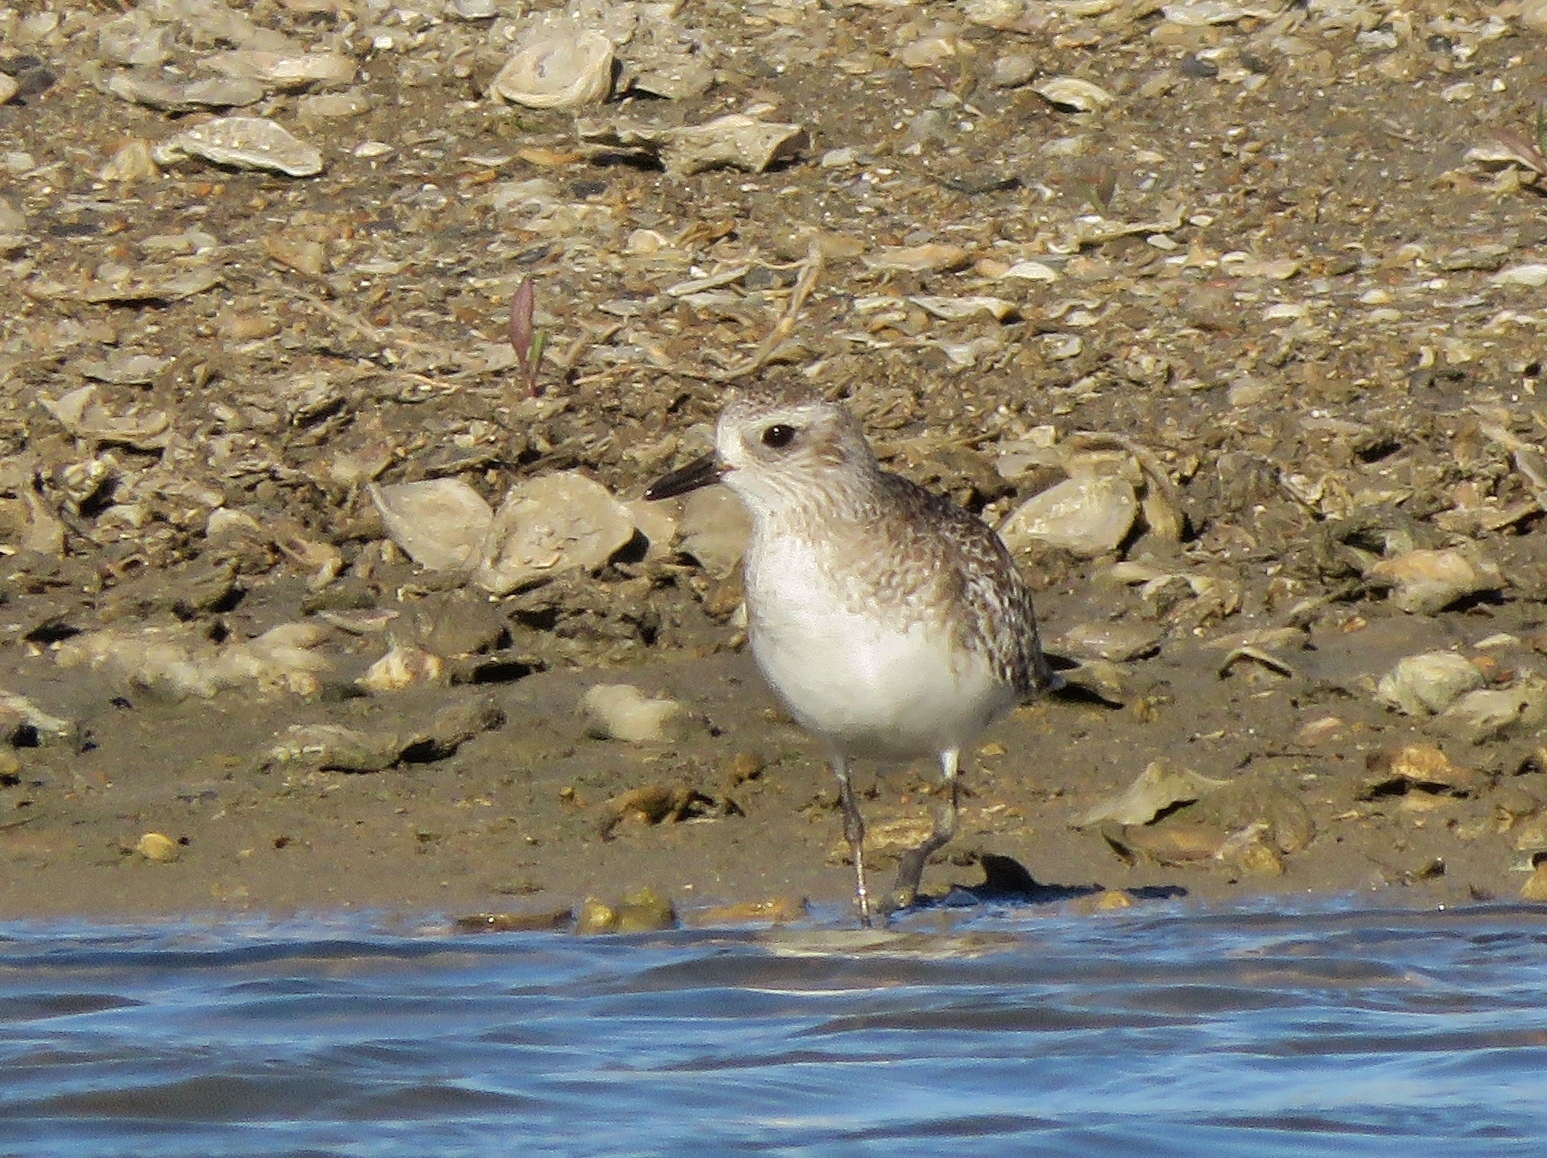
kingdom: Animalia
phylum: Chordata
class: Aves
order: Charadriiformes
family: Charadriidae
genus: Pluvialis
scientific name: Pluvialis squatarola
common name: Grey plover
